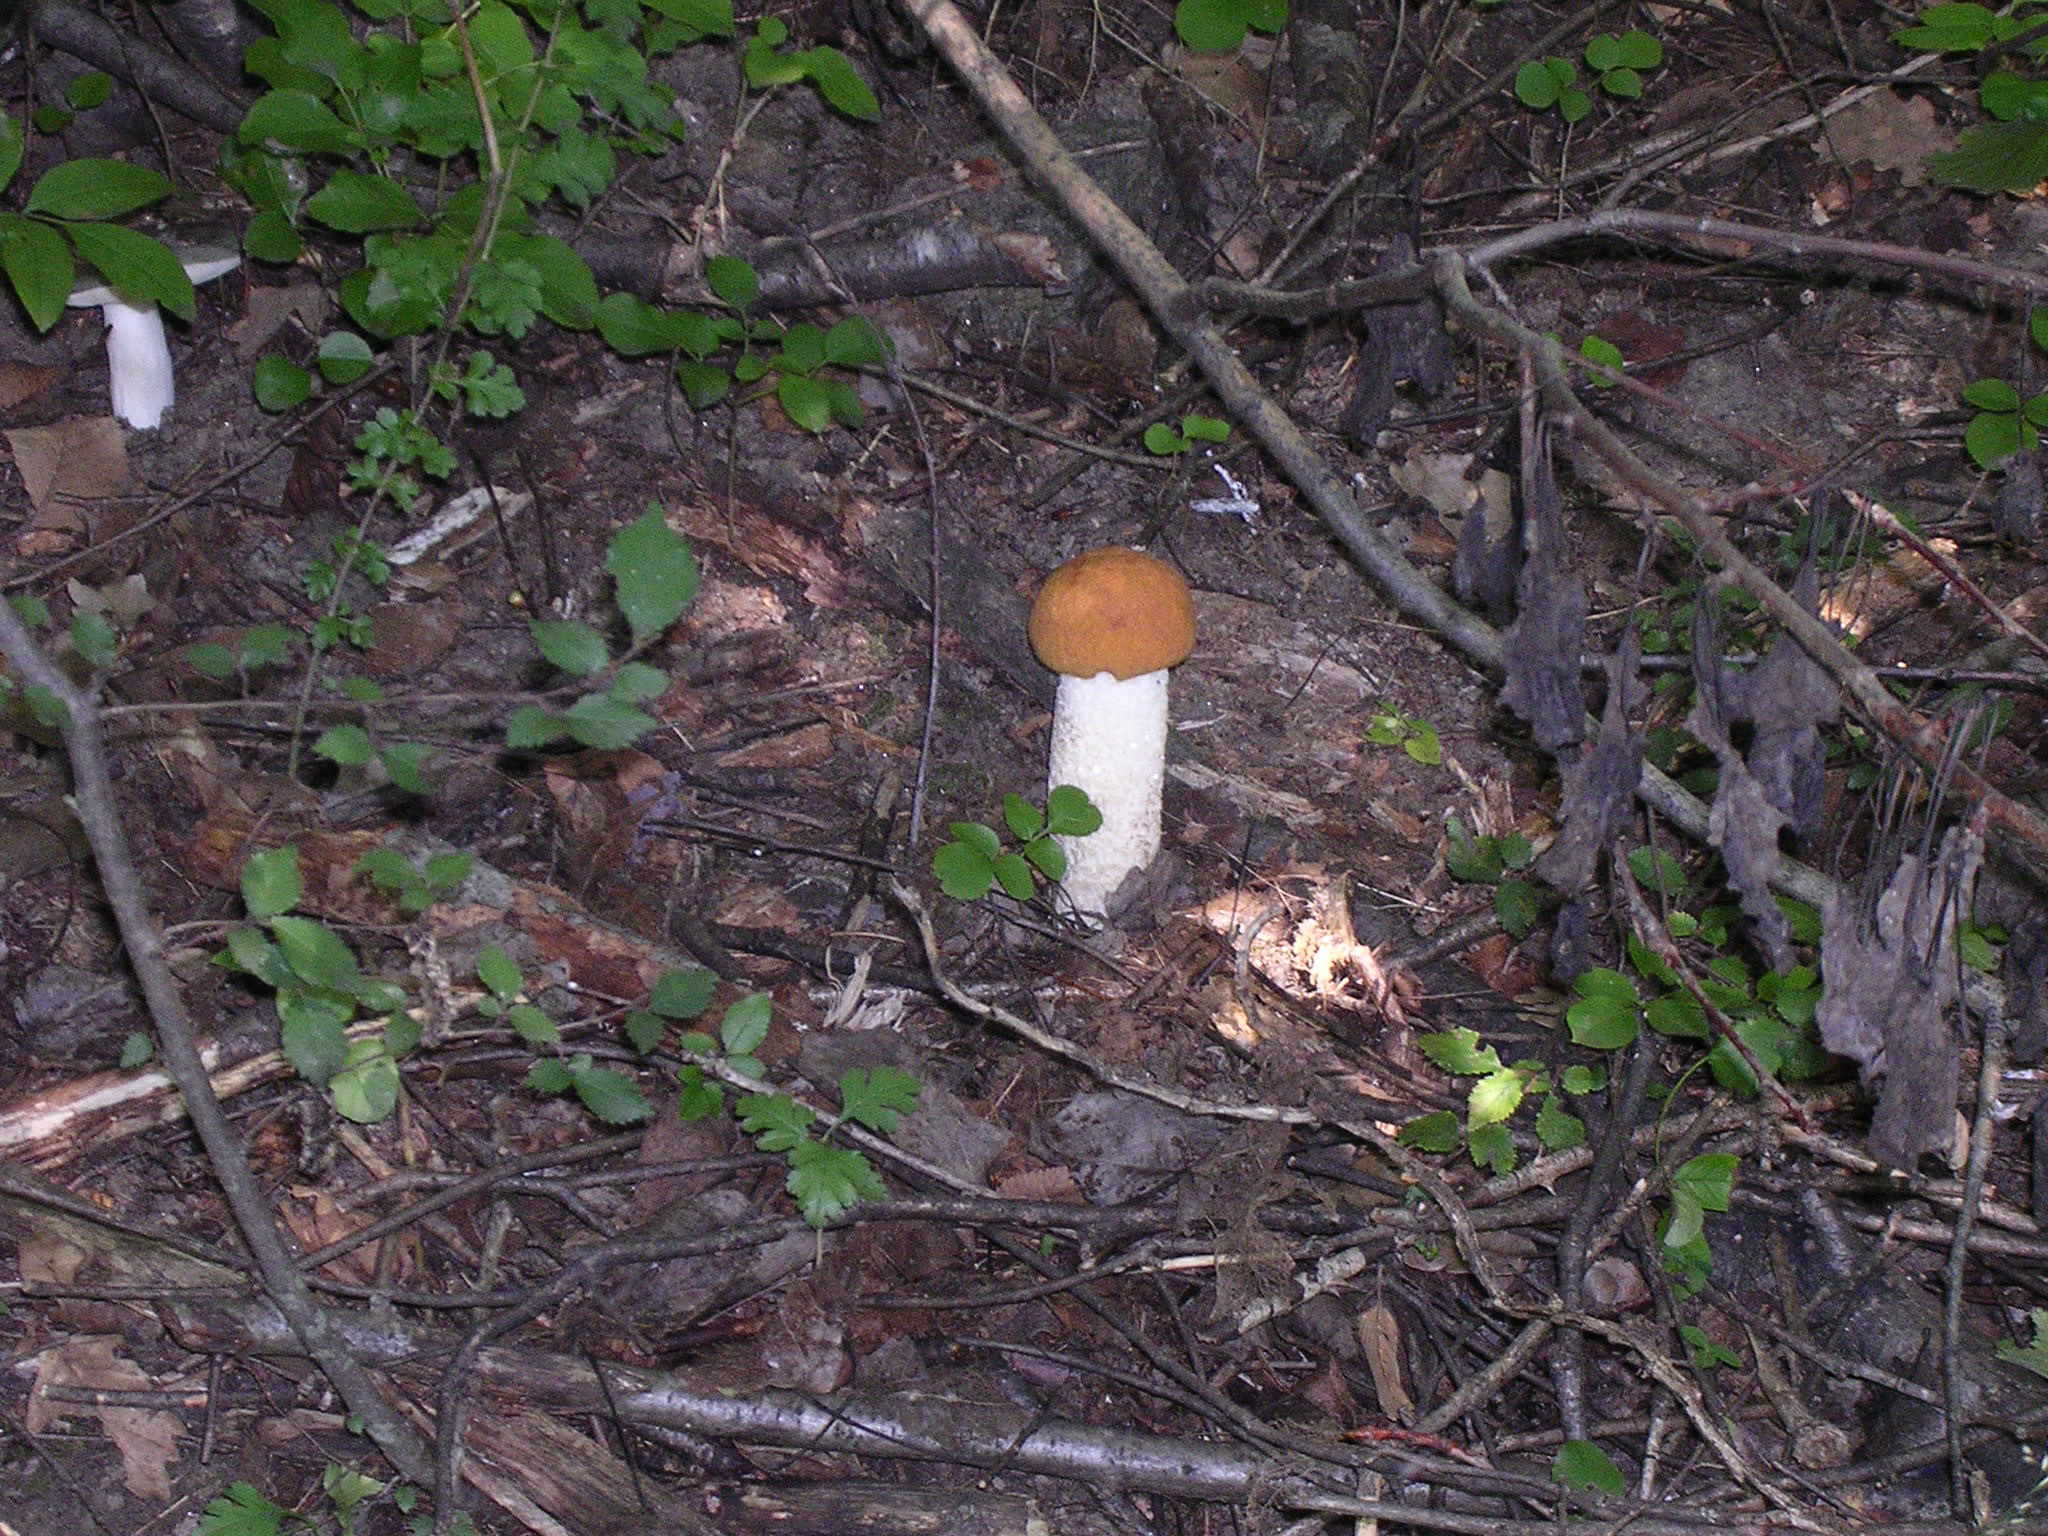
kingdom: Fungi
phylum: Basidiomycota
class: Agaricomycetes
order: Boletales
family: Boletaceae
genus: Leccinum
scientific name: Leccinum albostipitatum
